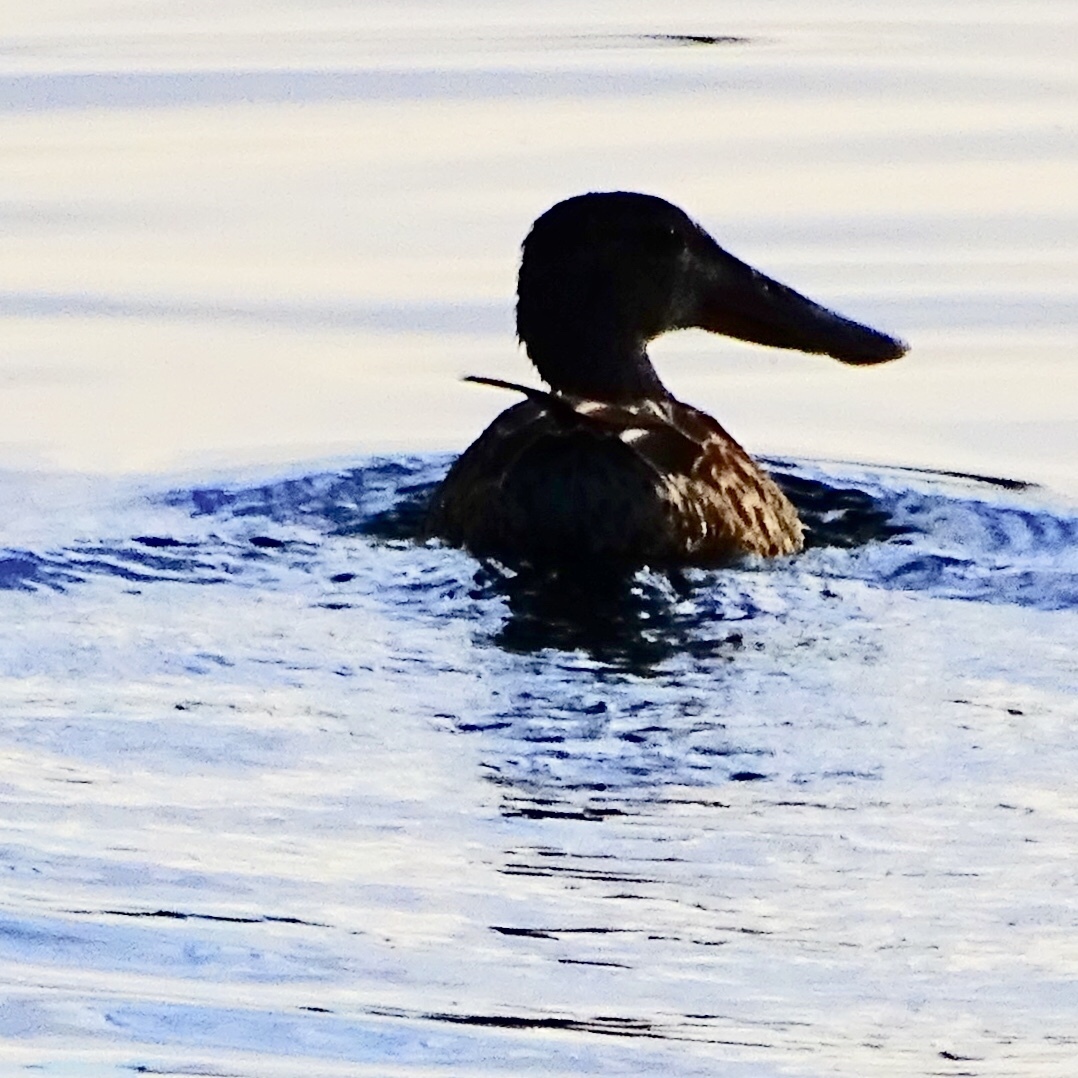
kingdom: Animalia
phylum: Chordata
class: Aves
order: Anseriformes
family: Anatidae
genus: Spatula
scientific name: Spatula clypeata
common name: Northern shoveler
